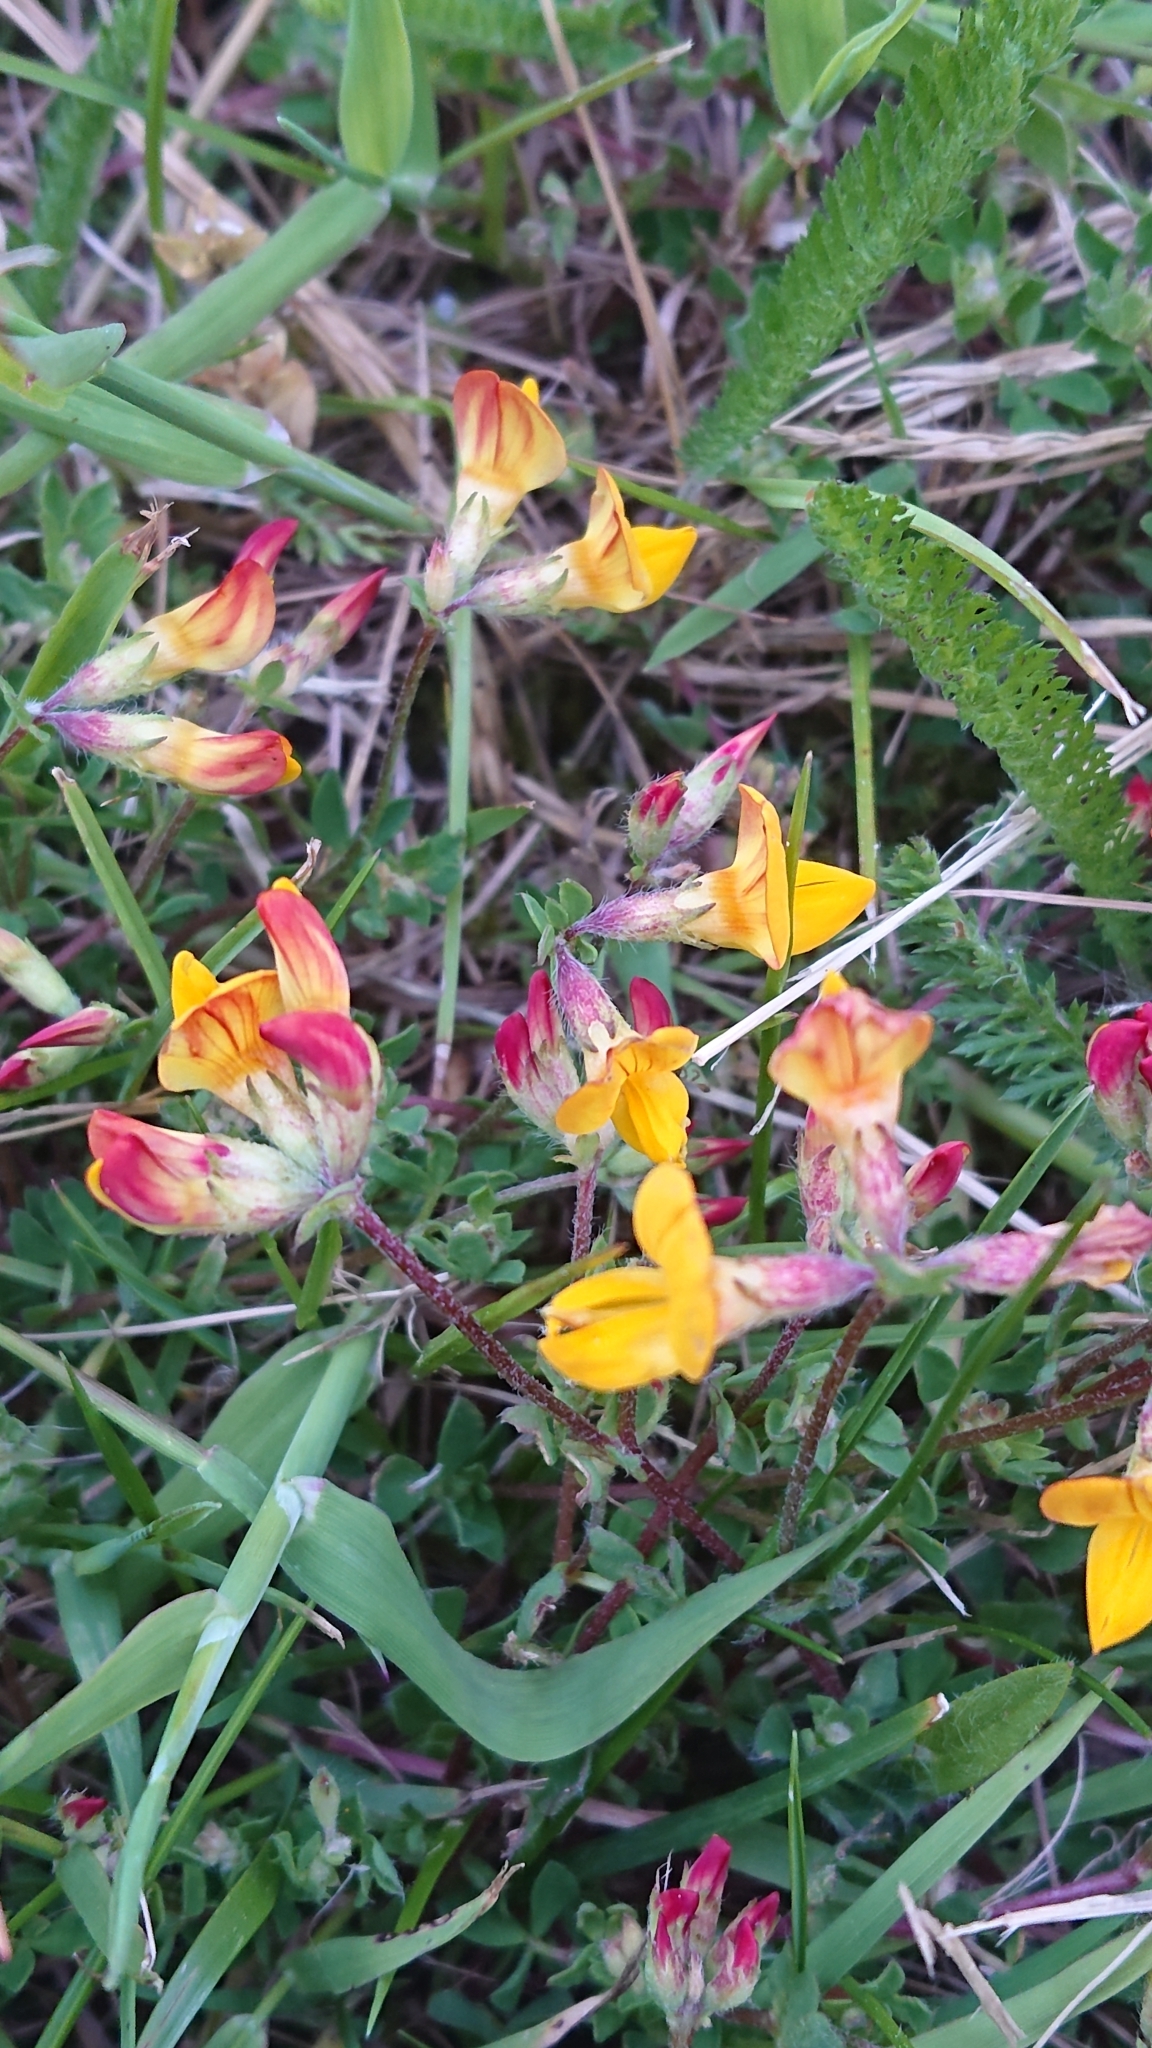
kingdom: Plantae
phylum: Tracheophyta
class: Magnoliopsida
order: Fabales
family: Fabaceae
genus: Lotus
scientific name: Lotus corniculatus
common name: Common bird's-foot-trefoil
